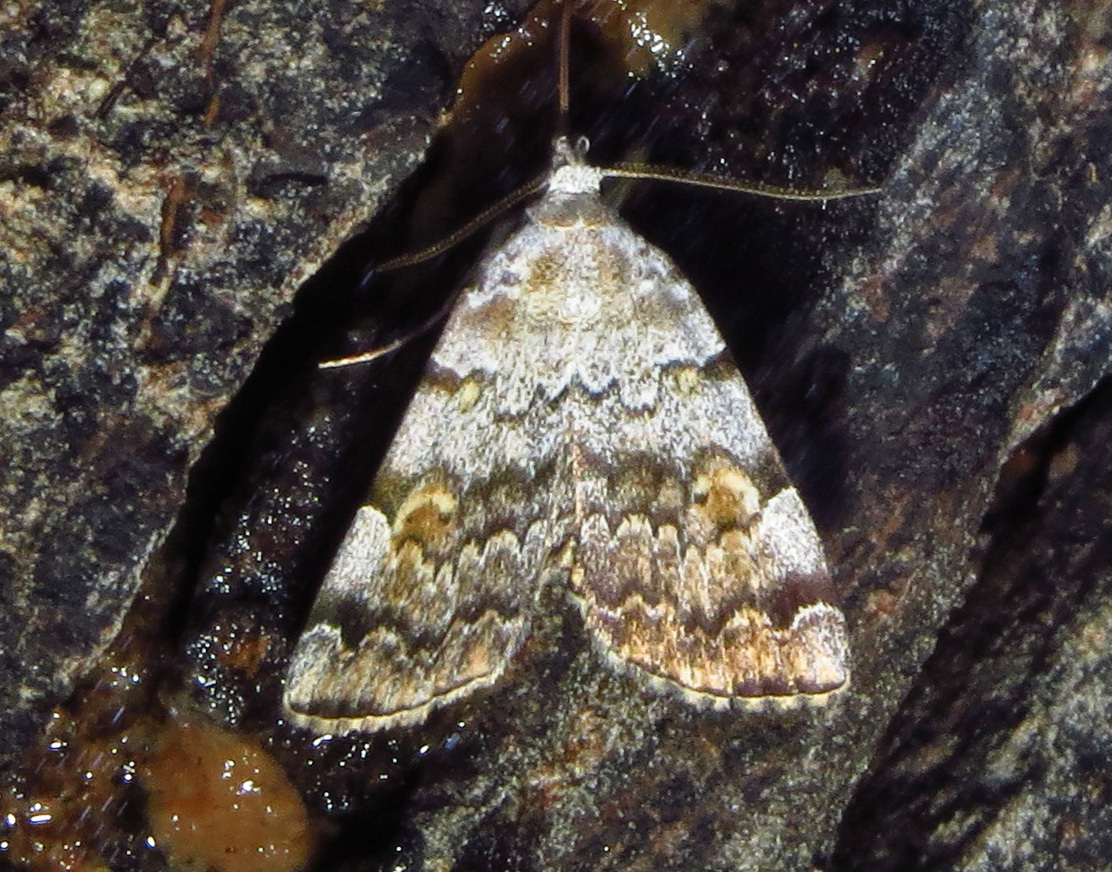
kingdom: Animalia
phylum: Arthropoda
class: Insecta
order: Lepidoptera
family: Erebidae
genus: Idia
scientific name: Idia americalis
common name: American idia moth
